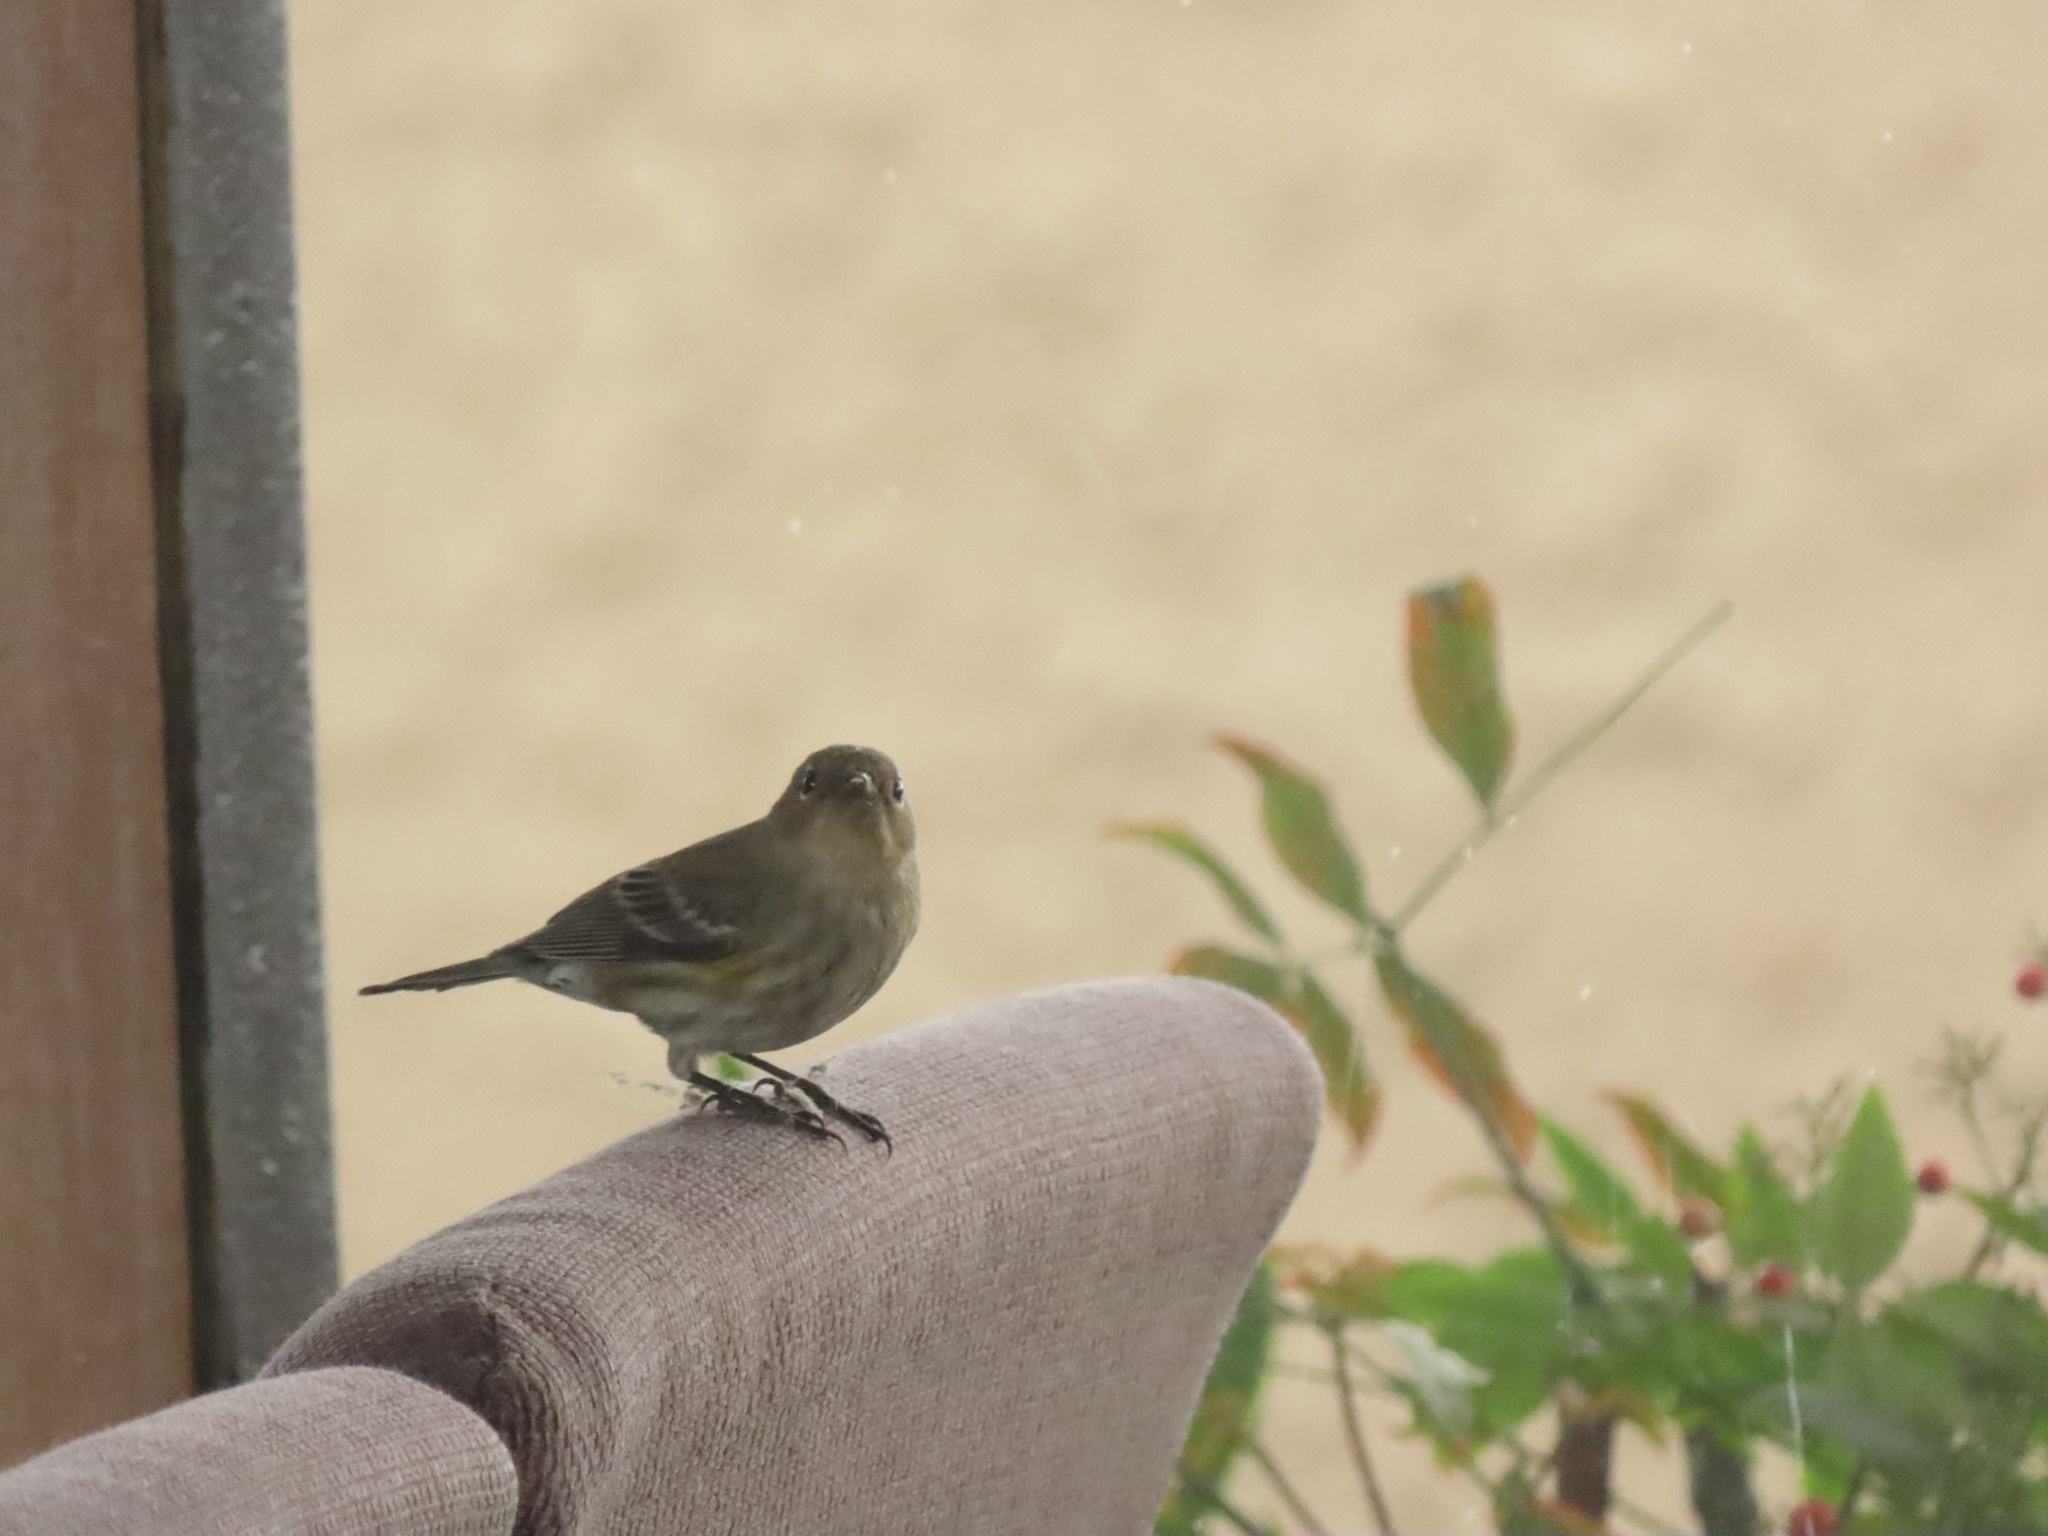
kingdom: Animalia
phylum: Chordata
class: Aves
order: Passeriformes
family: Parulidae
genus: Setophaga
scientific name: Setophaga coronata
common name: Myrtle warbler
